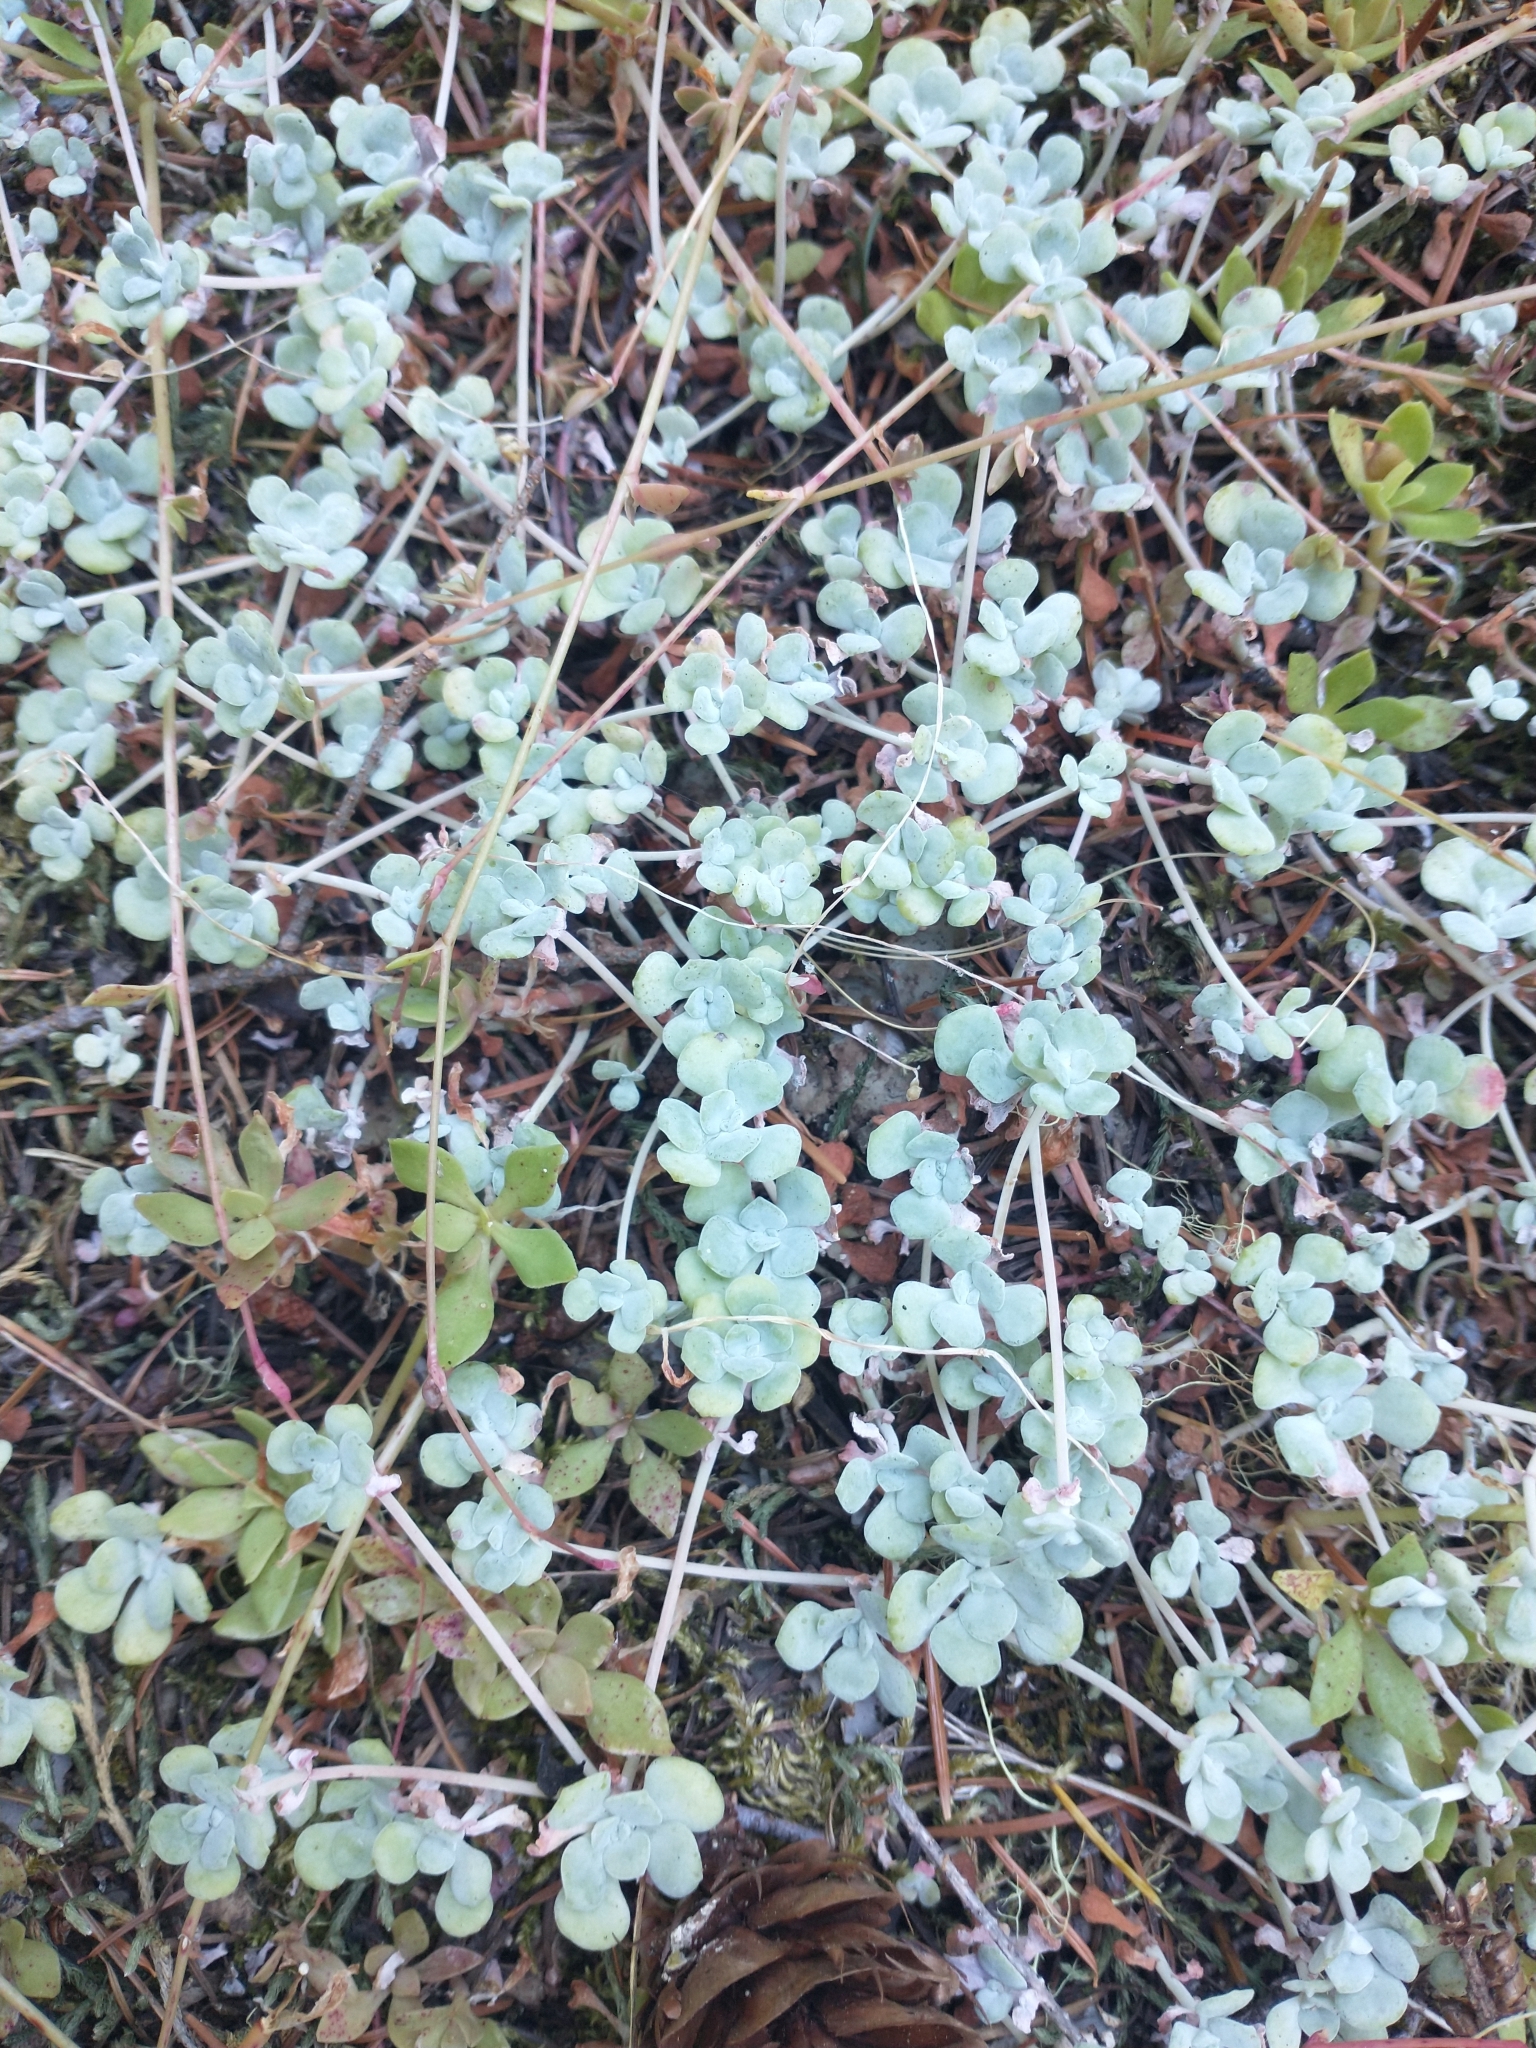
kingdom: Plantae
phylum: Tracheophyta
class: Magnoliopsida
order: Saxifragales
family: Crassulaceae
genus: Sedum
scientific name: Sedum spathulifolium
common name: Colorado stonecrop
